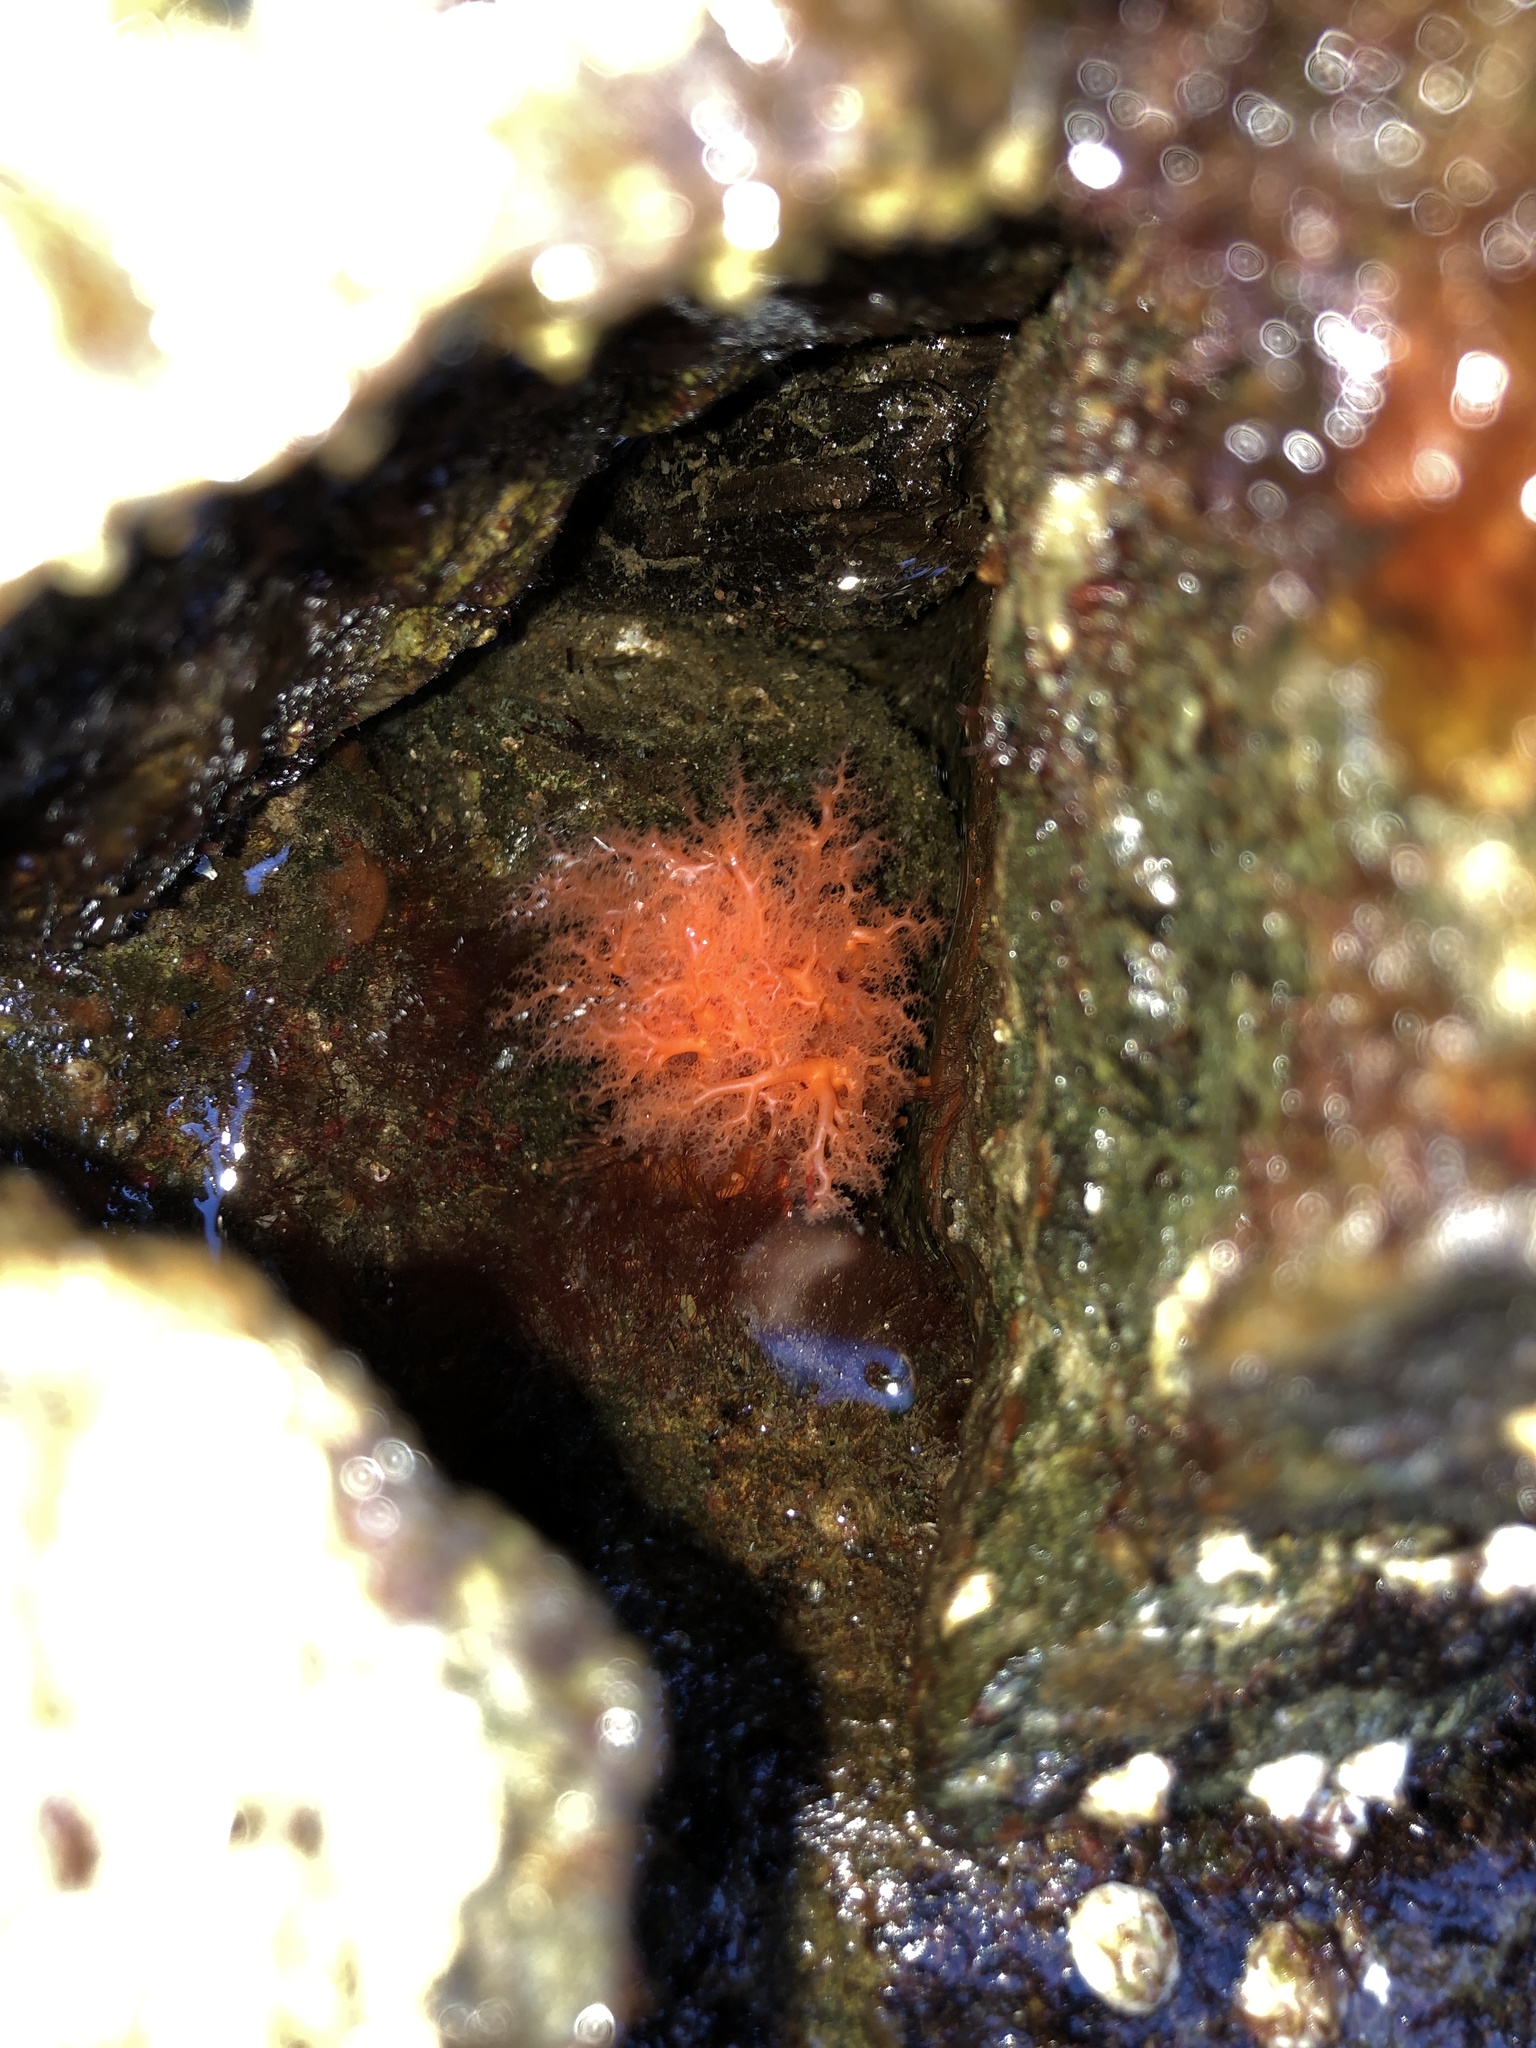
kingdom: Animalia
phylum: Echinodermata
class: Holothuroidea
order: Dendrochirotida
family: Cucumariidae
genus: Cucumaria
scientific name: Cucumaria miniata
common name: Orange sea cucumber
